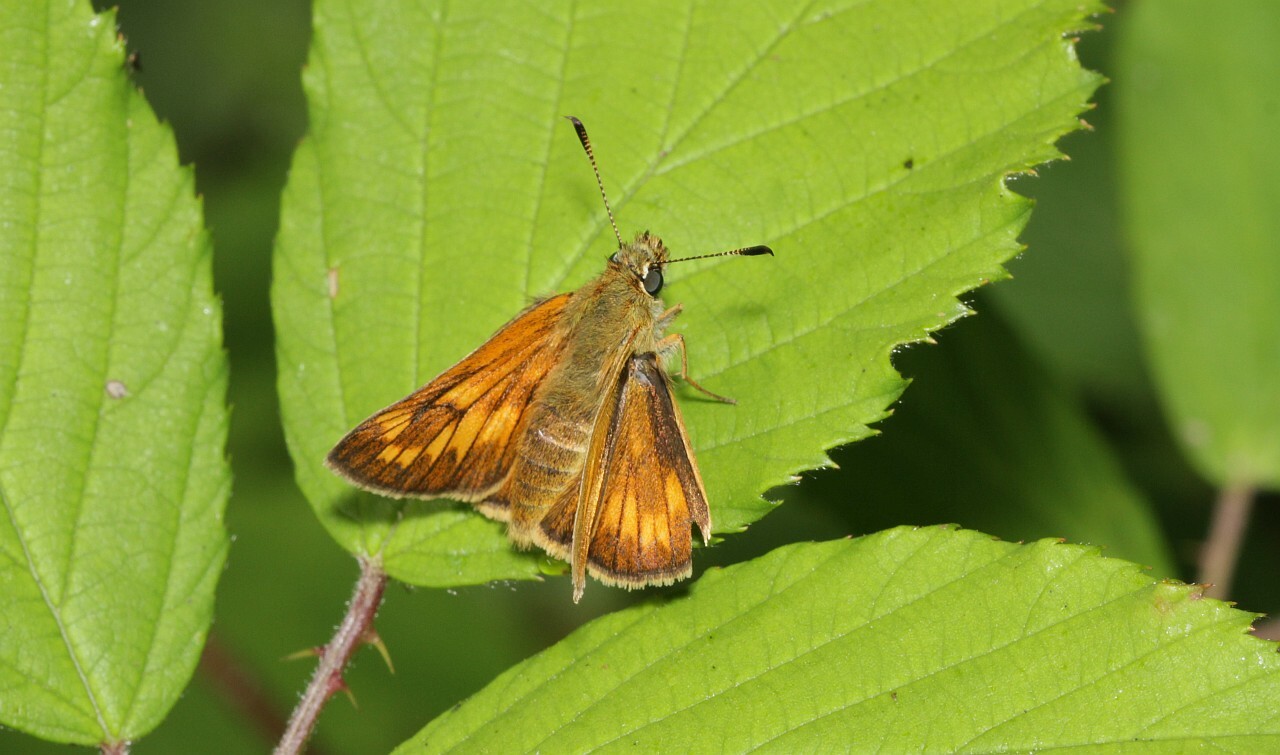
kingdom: Animalia
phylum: Arthropoda
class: Insecta
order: Lepidoptera
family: Hesperiidae
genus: Ochlodes
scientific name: Ochlodes venata
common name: Large skipper
